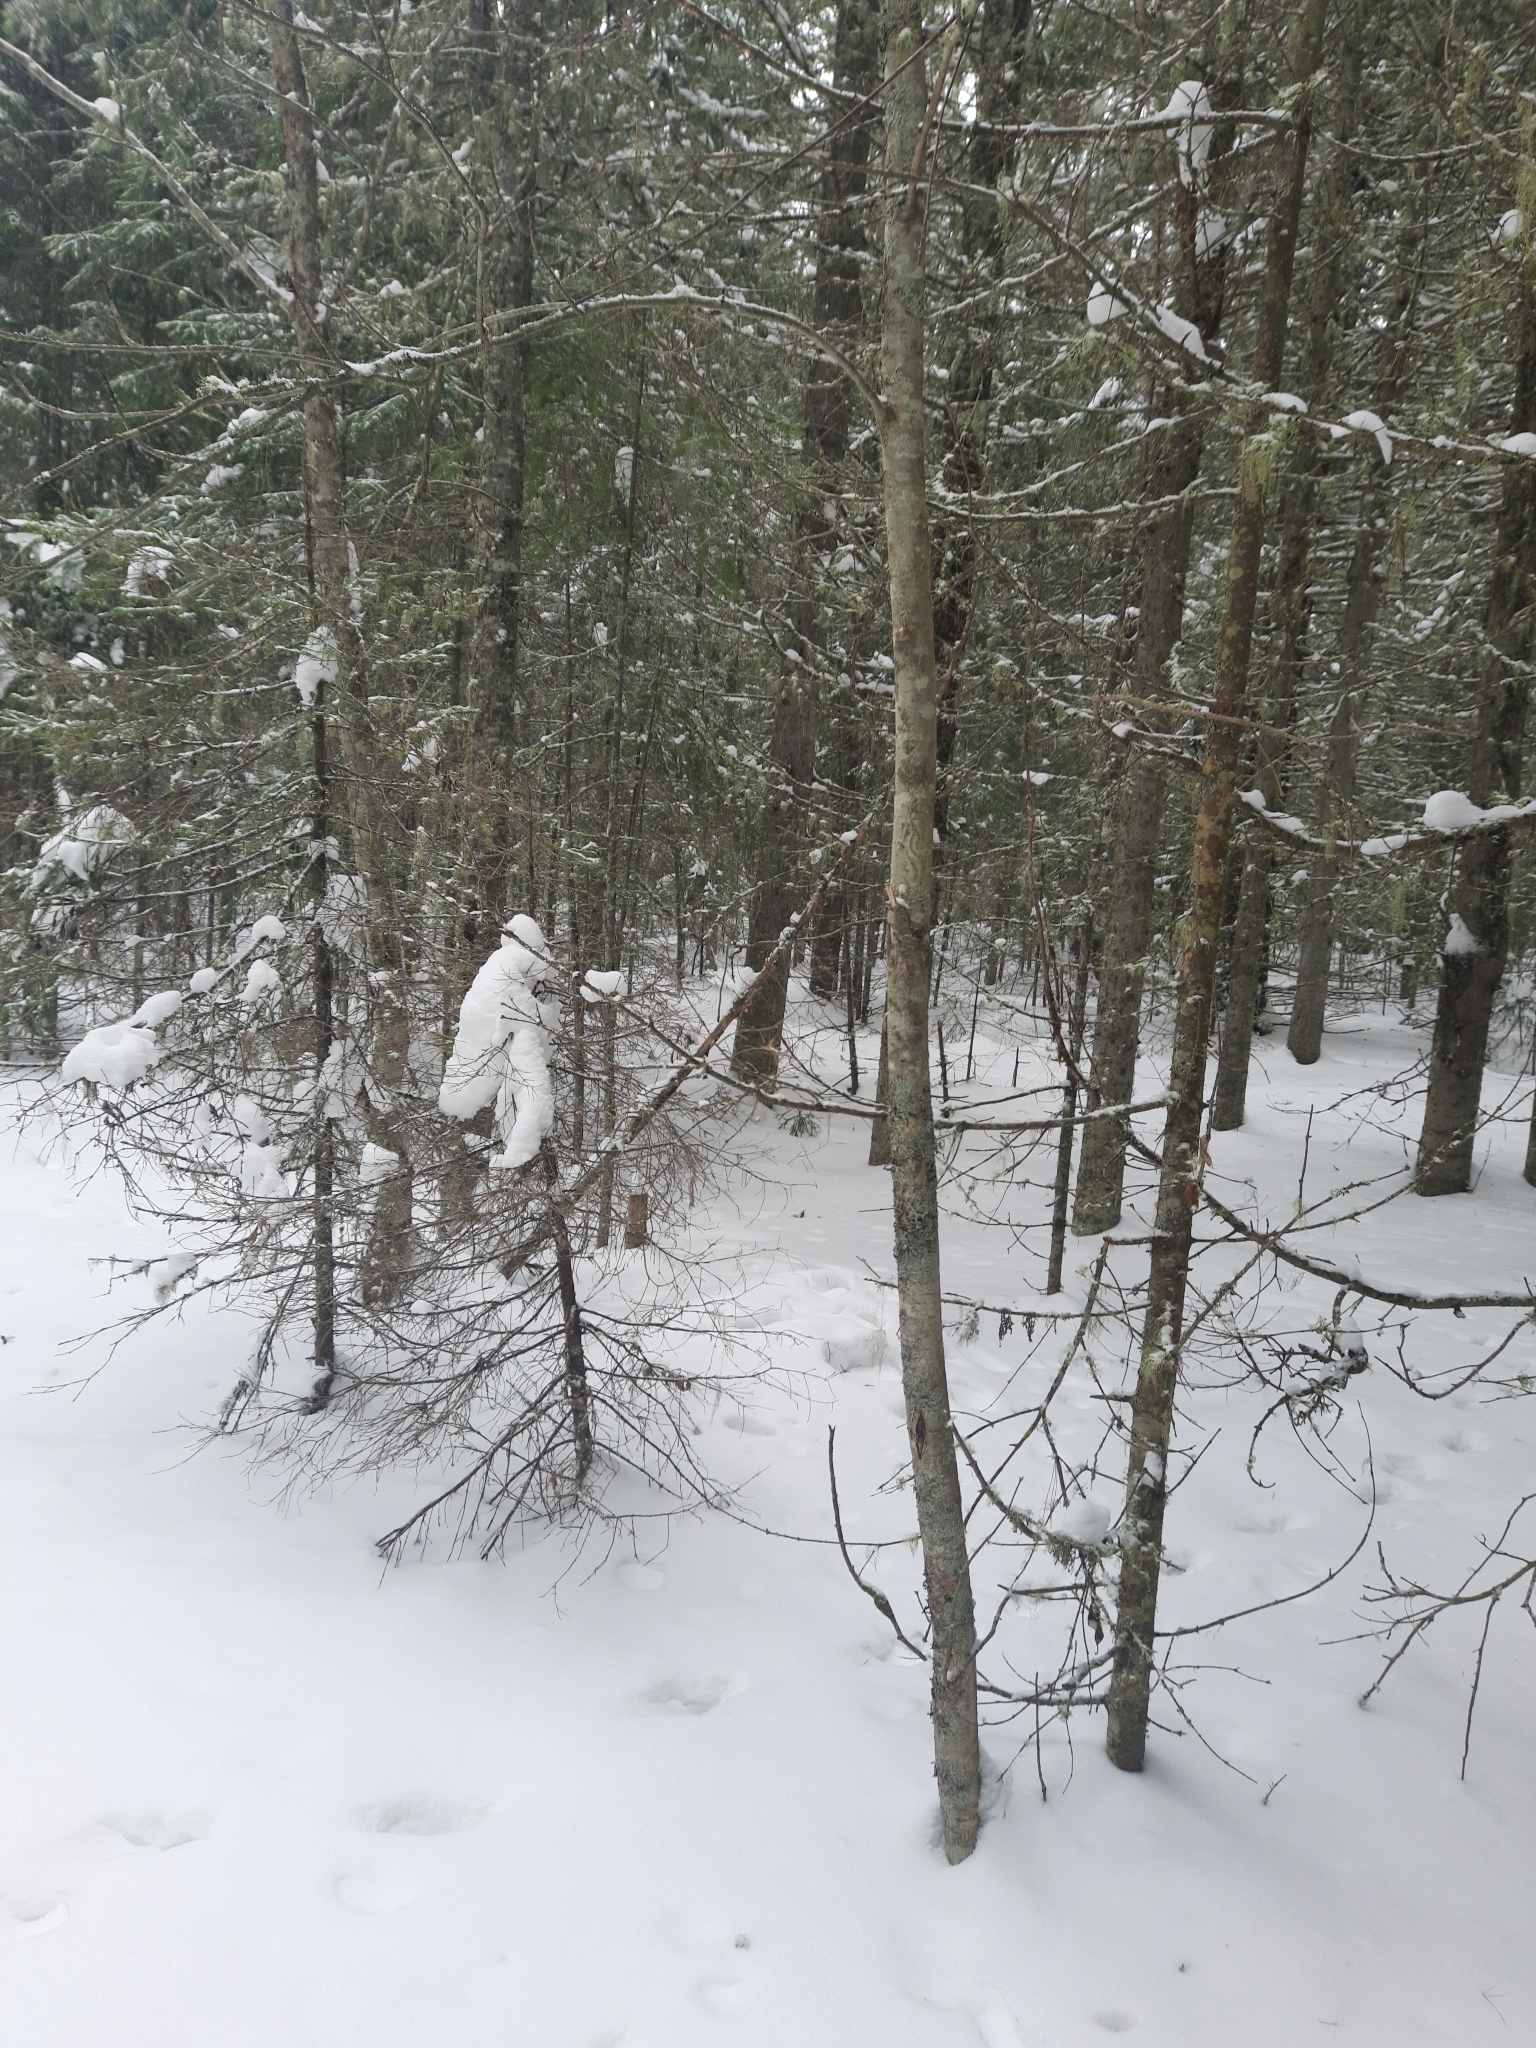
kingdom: Plantae
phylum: Tracheophyta
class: Magnoliopsida
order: Rosales
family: Rosaceae
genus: Sorbus
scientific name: Sorbus aucuparia
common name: Rowan
